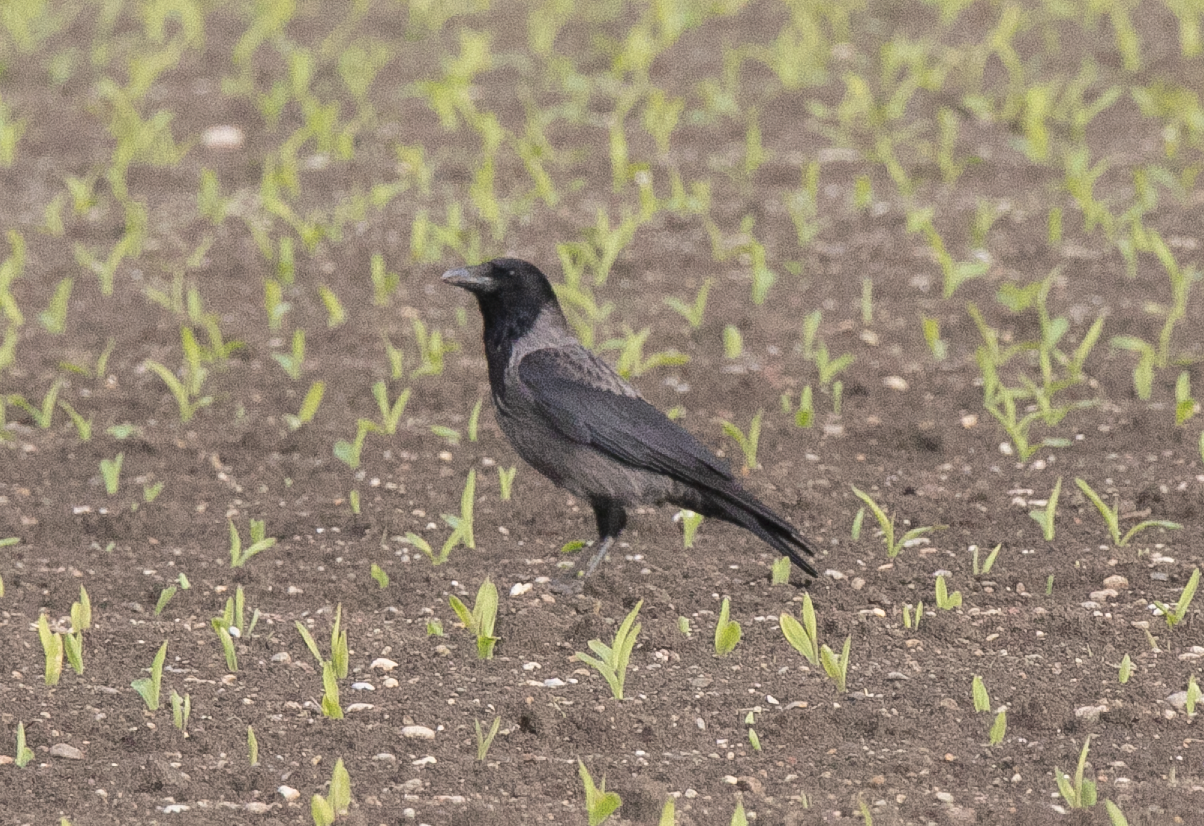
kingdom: Animalia
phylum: Chordata
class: Aves
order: Passeriformes
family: Corvidae
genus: Corvus
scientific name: Corvus
